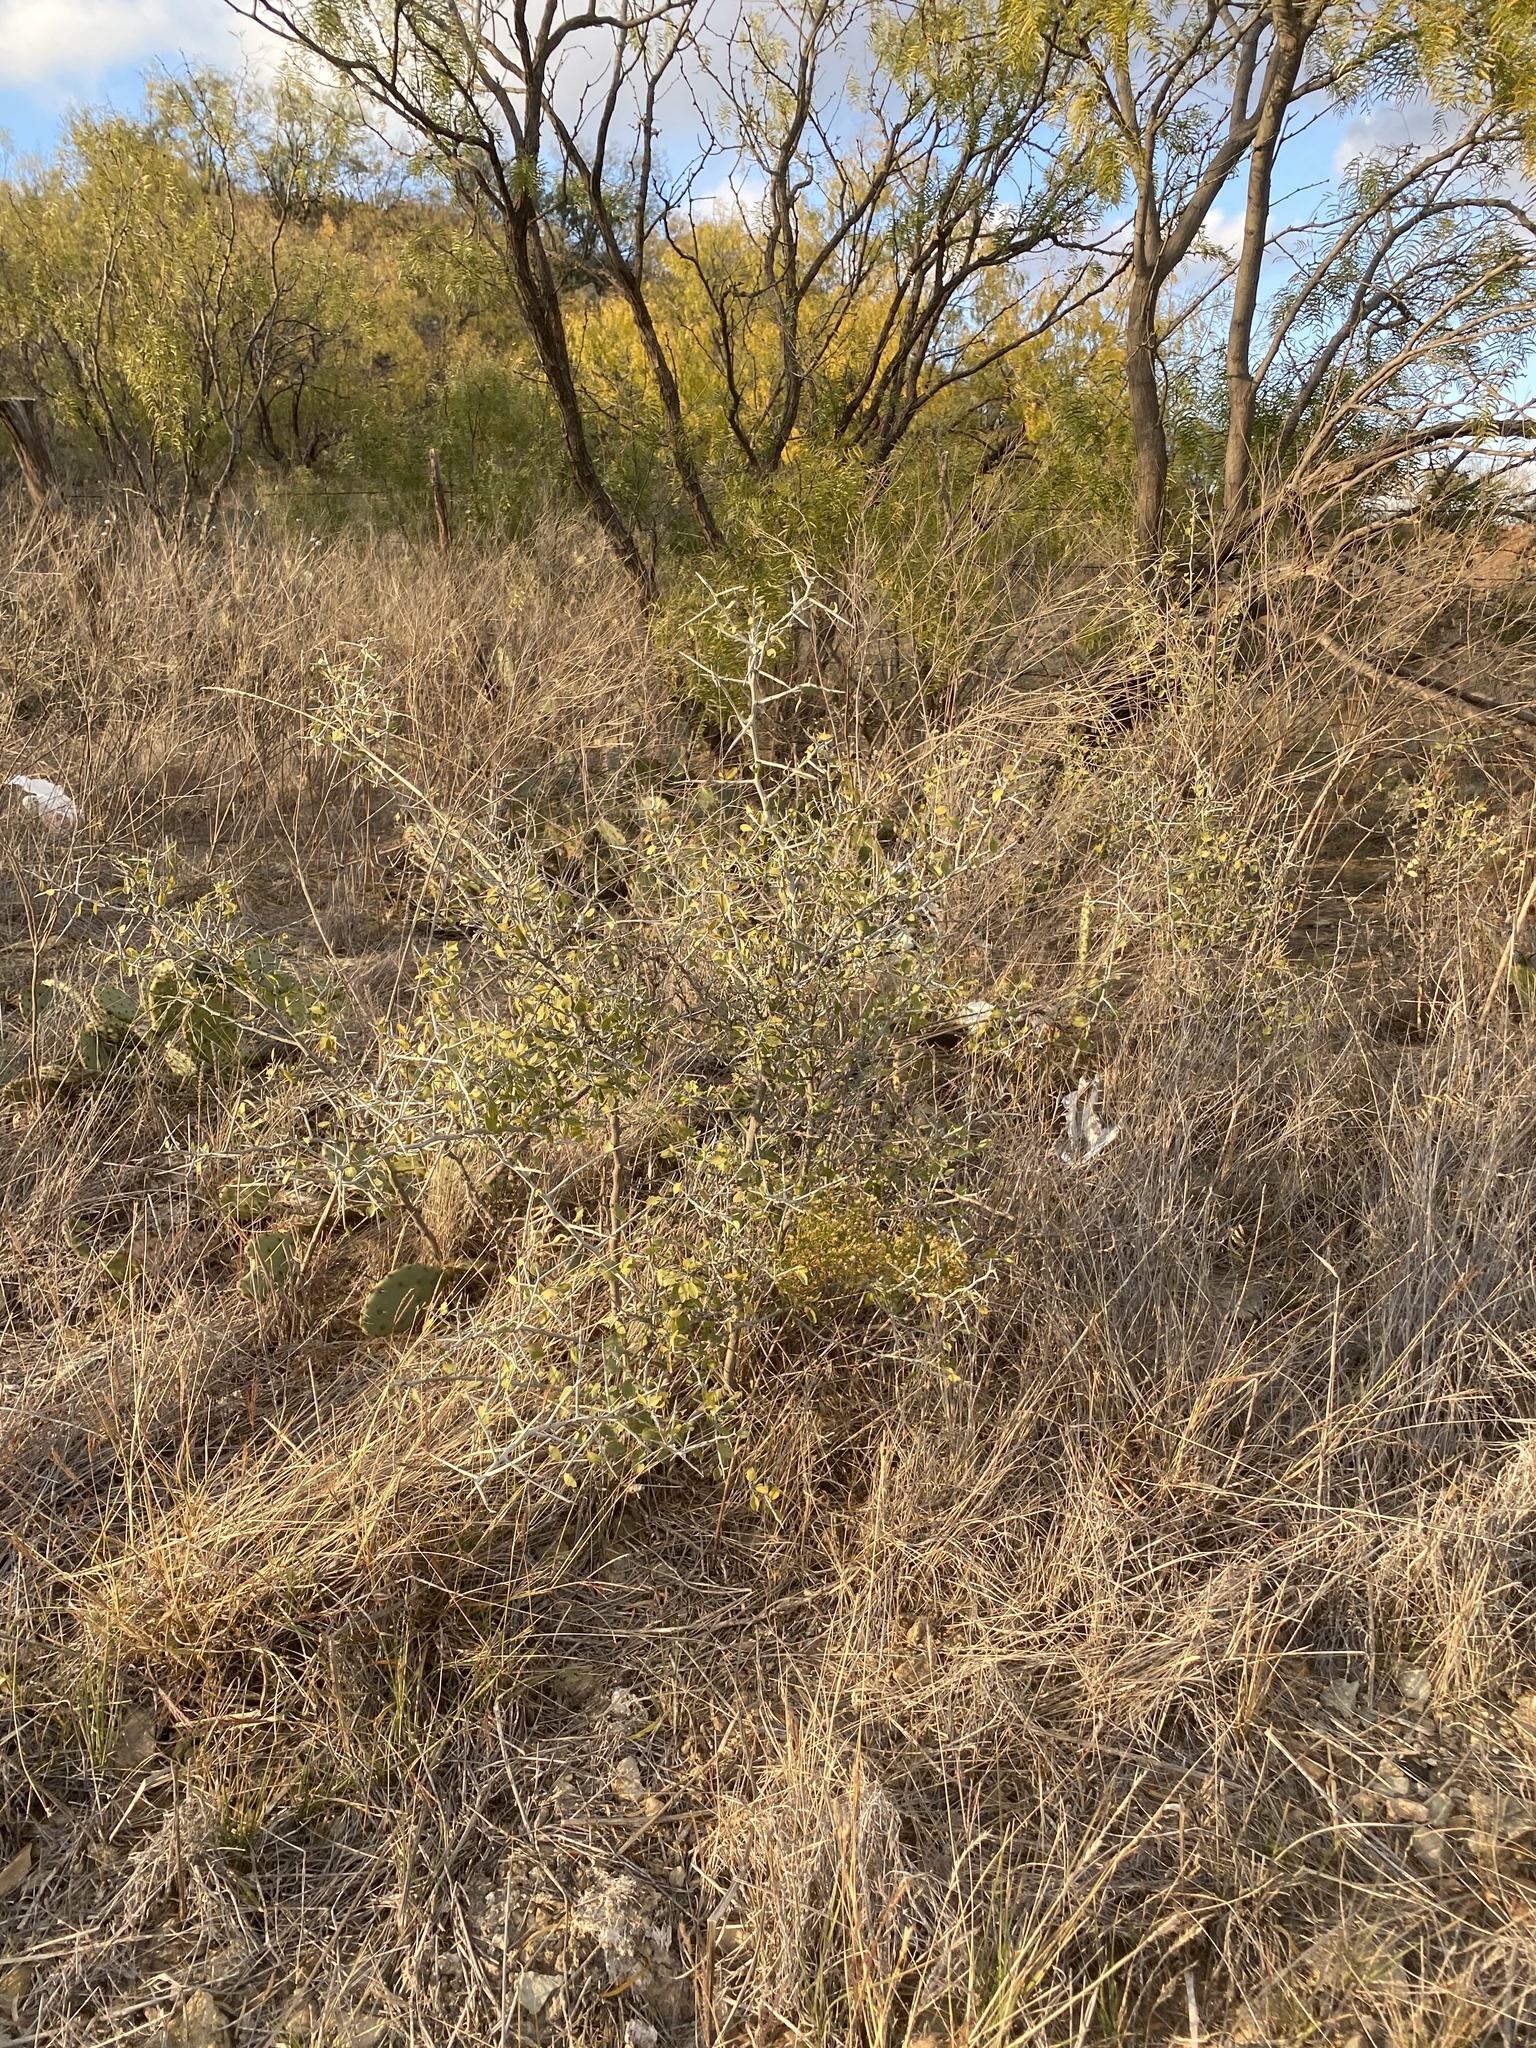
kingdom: Plantae
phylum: Tracheophyta
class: Magnoliopsida
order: Rosales
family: Rhamnaceae
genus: Sarcomphalus
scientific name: Sarcomphalus obtusifolius
